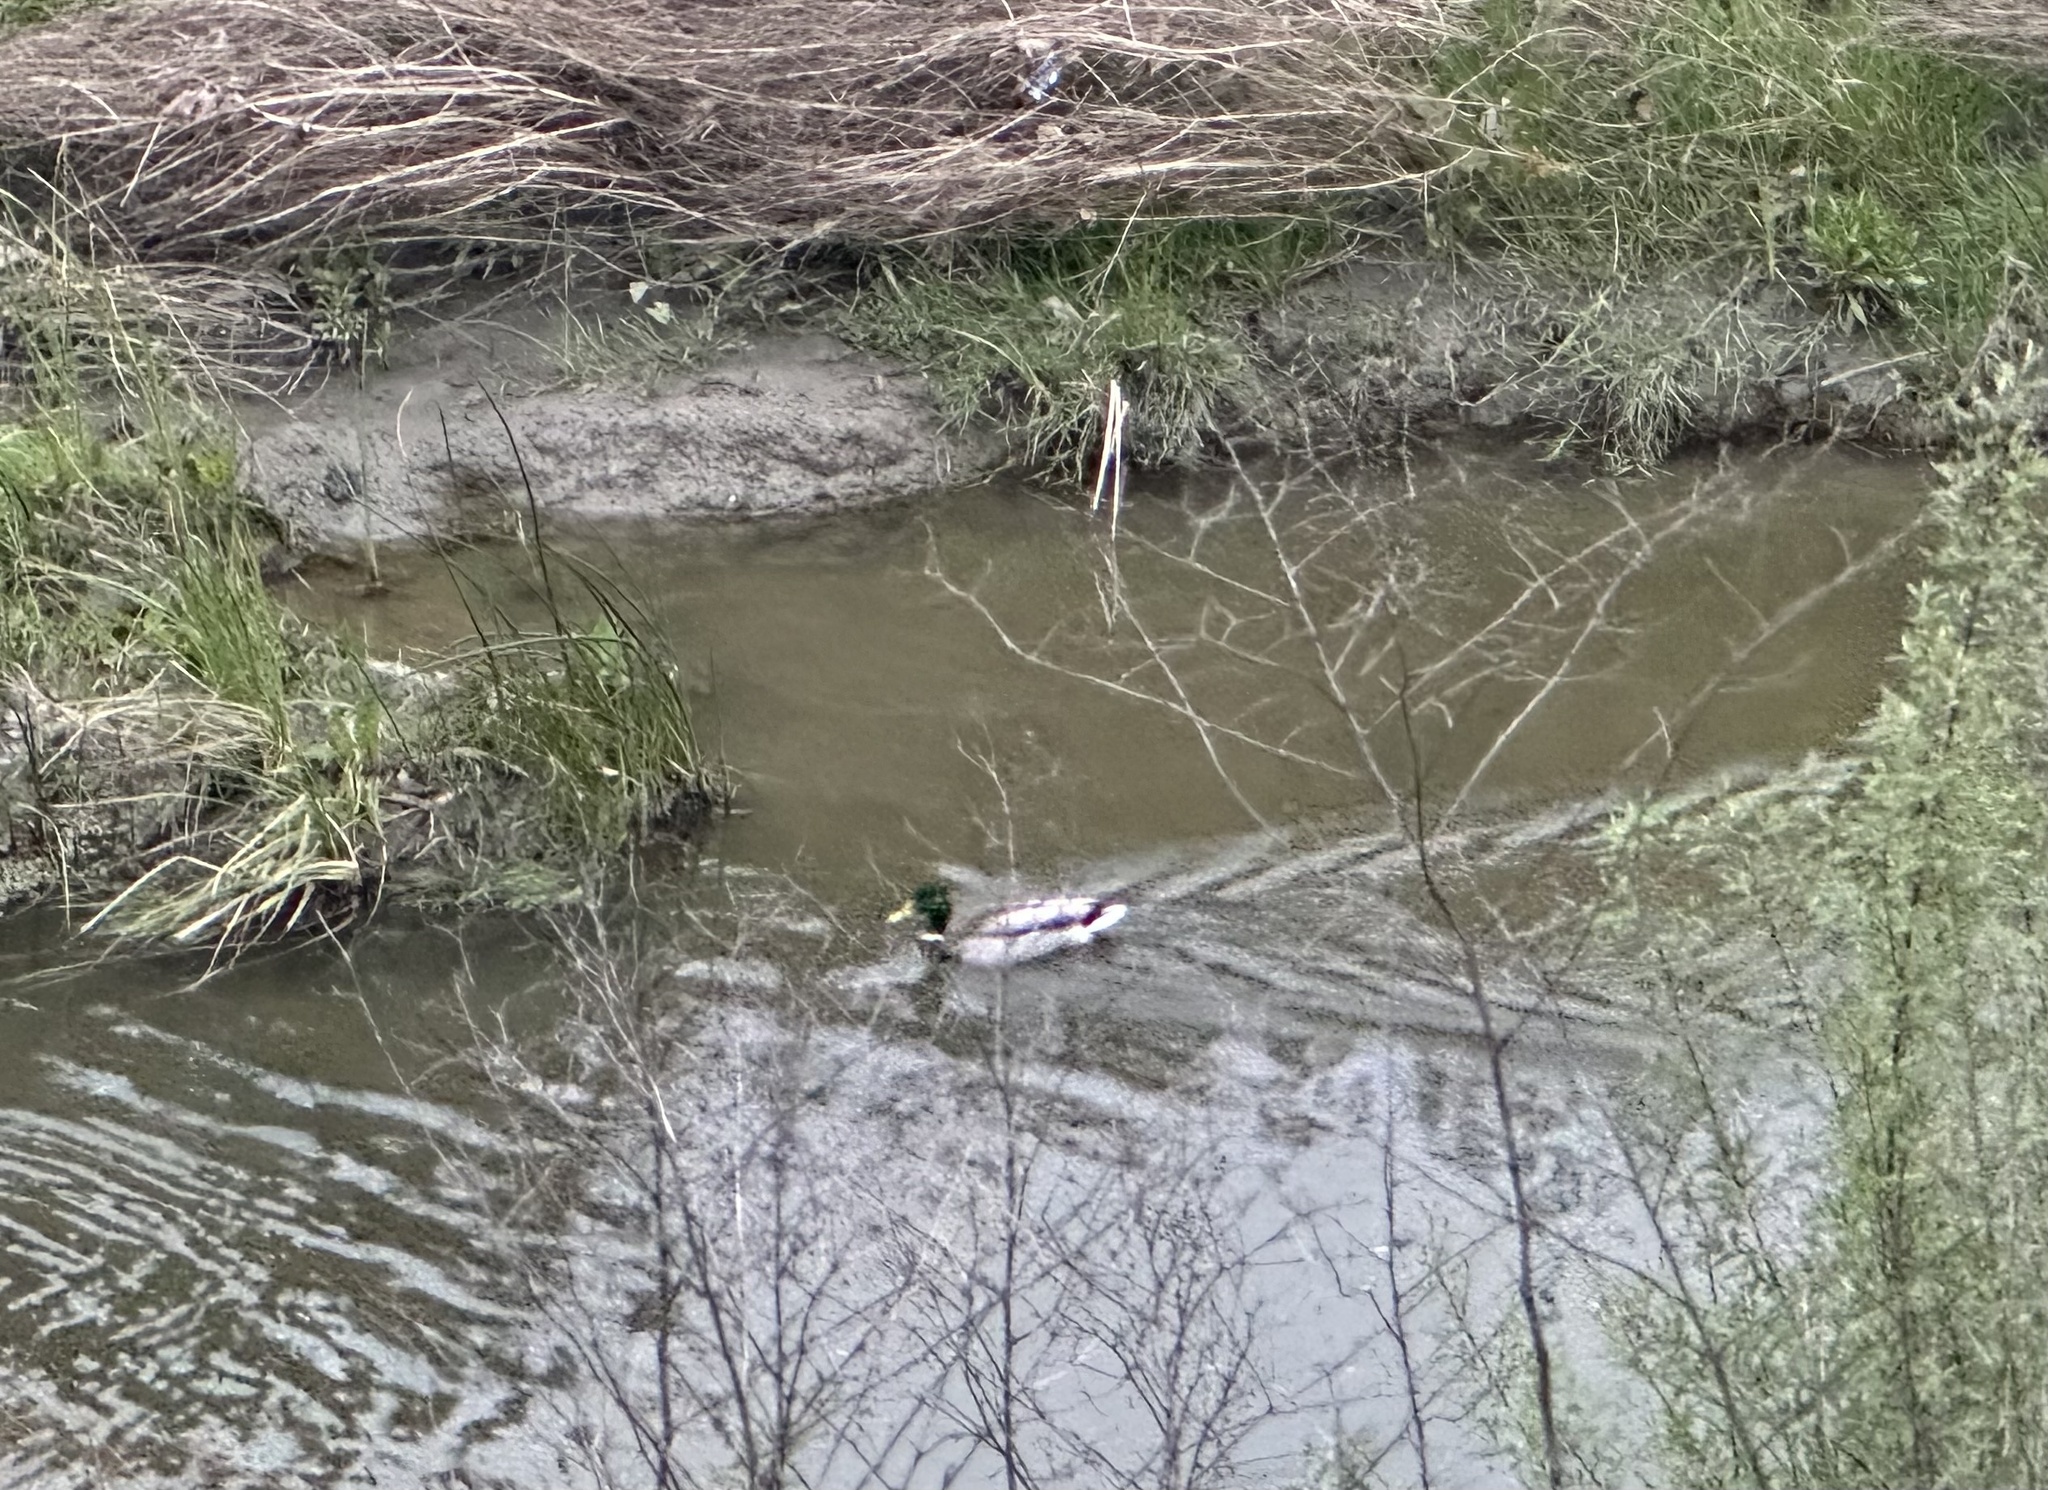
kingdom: Animalia
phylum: Chordata
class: Aves
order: Anseriformes
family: Anatidae
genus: Anas
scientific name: Anas platyrhynchos
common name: Mallard
